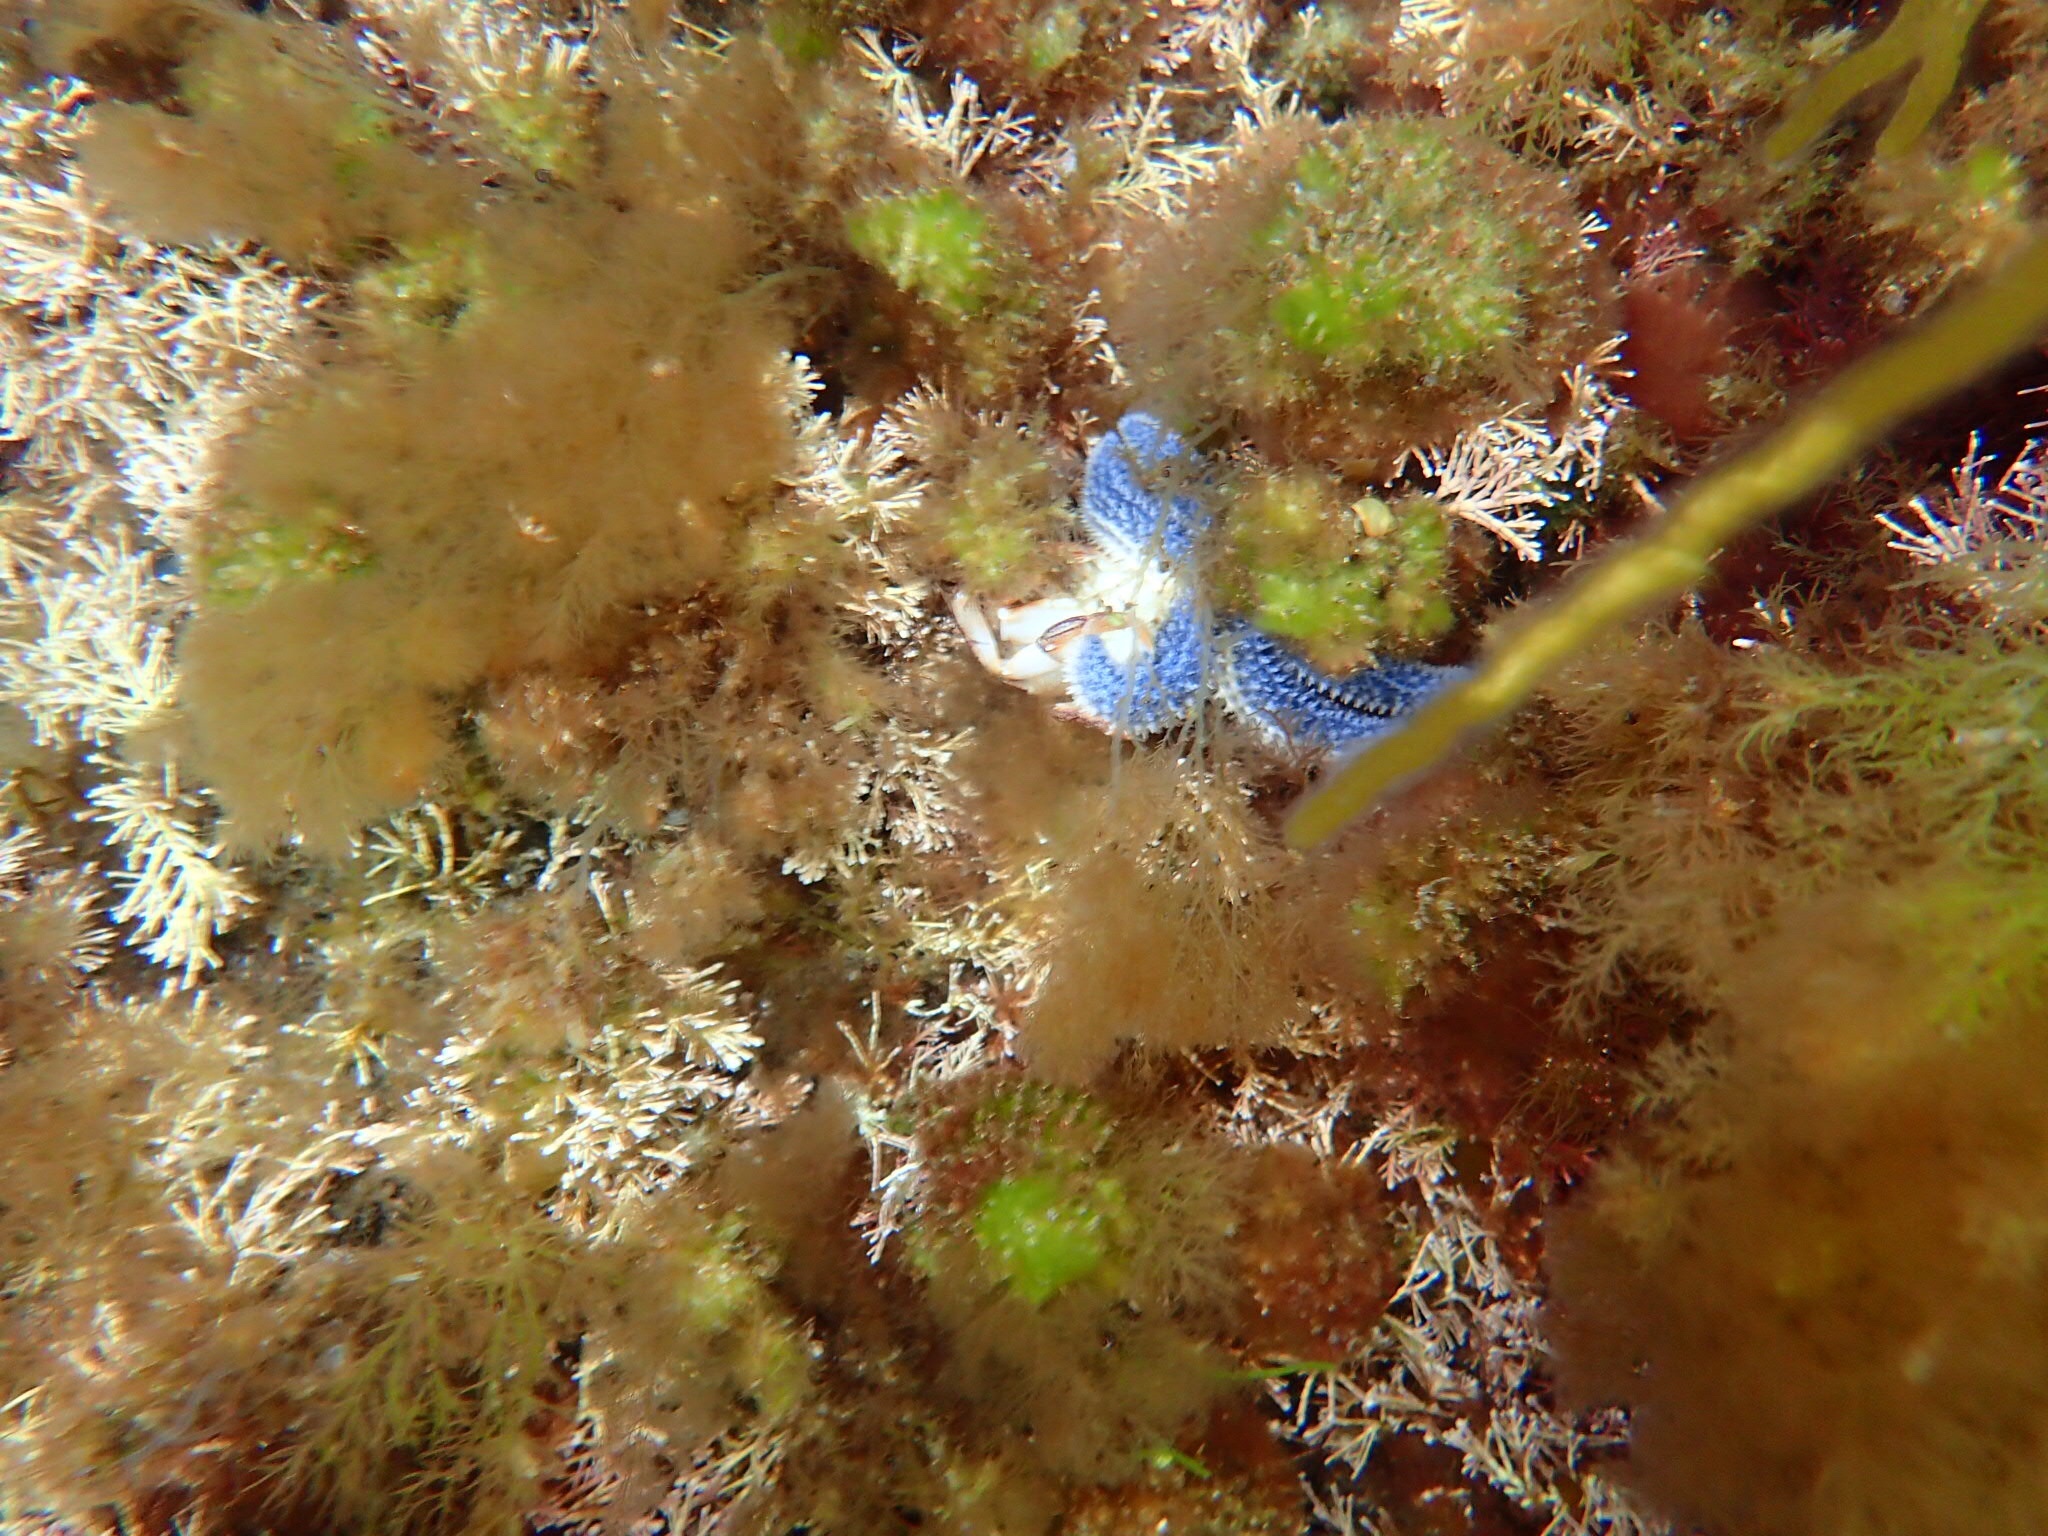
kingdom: Animalia
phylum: Echinodermata
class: Asteroidea
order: Forcipulatida
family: Asteriidae
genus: Asterias
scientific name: Asterias rubens
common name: Common starfish
